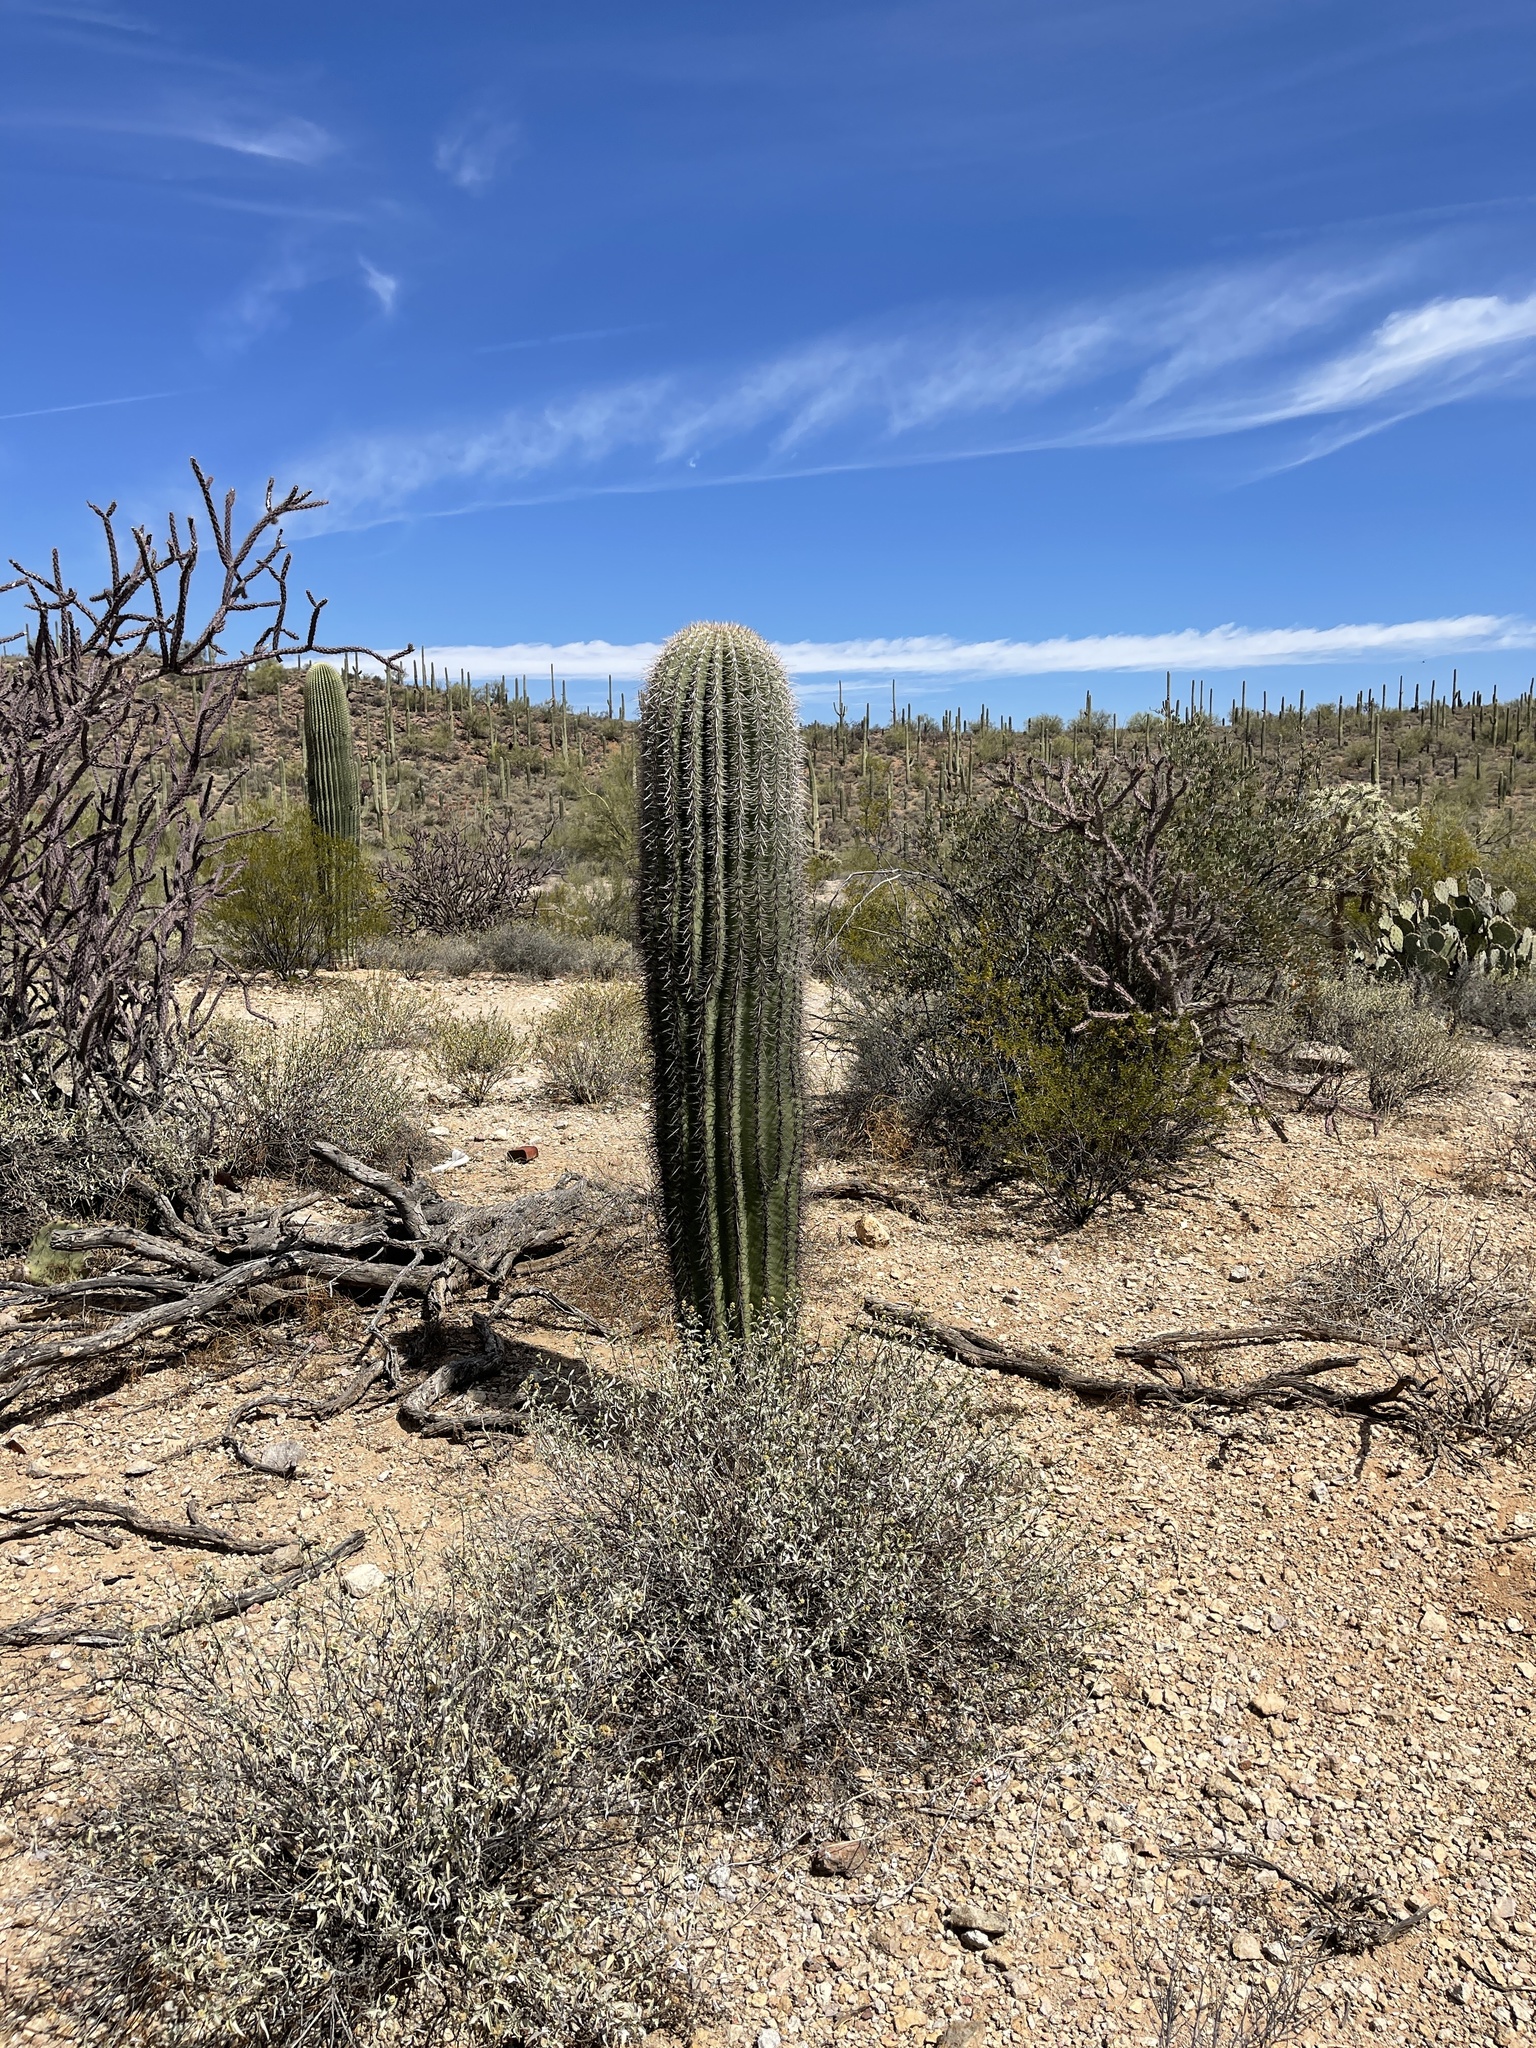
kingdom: Plantae
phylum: Tracheophyta
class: Magnoliopsida
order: Caryophyllales
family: Cactaceae
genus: Carnegiea
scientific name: Carnegiea gigantea
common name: Saguaro
